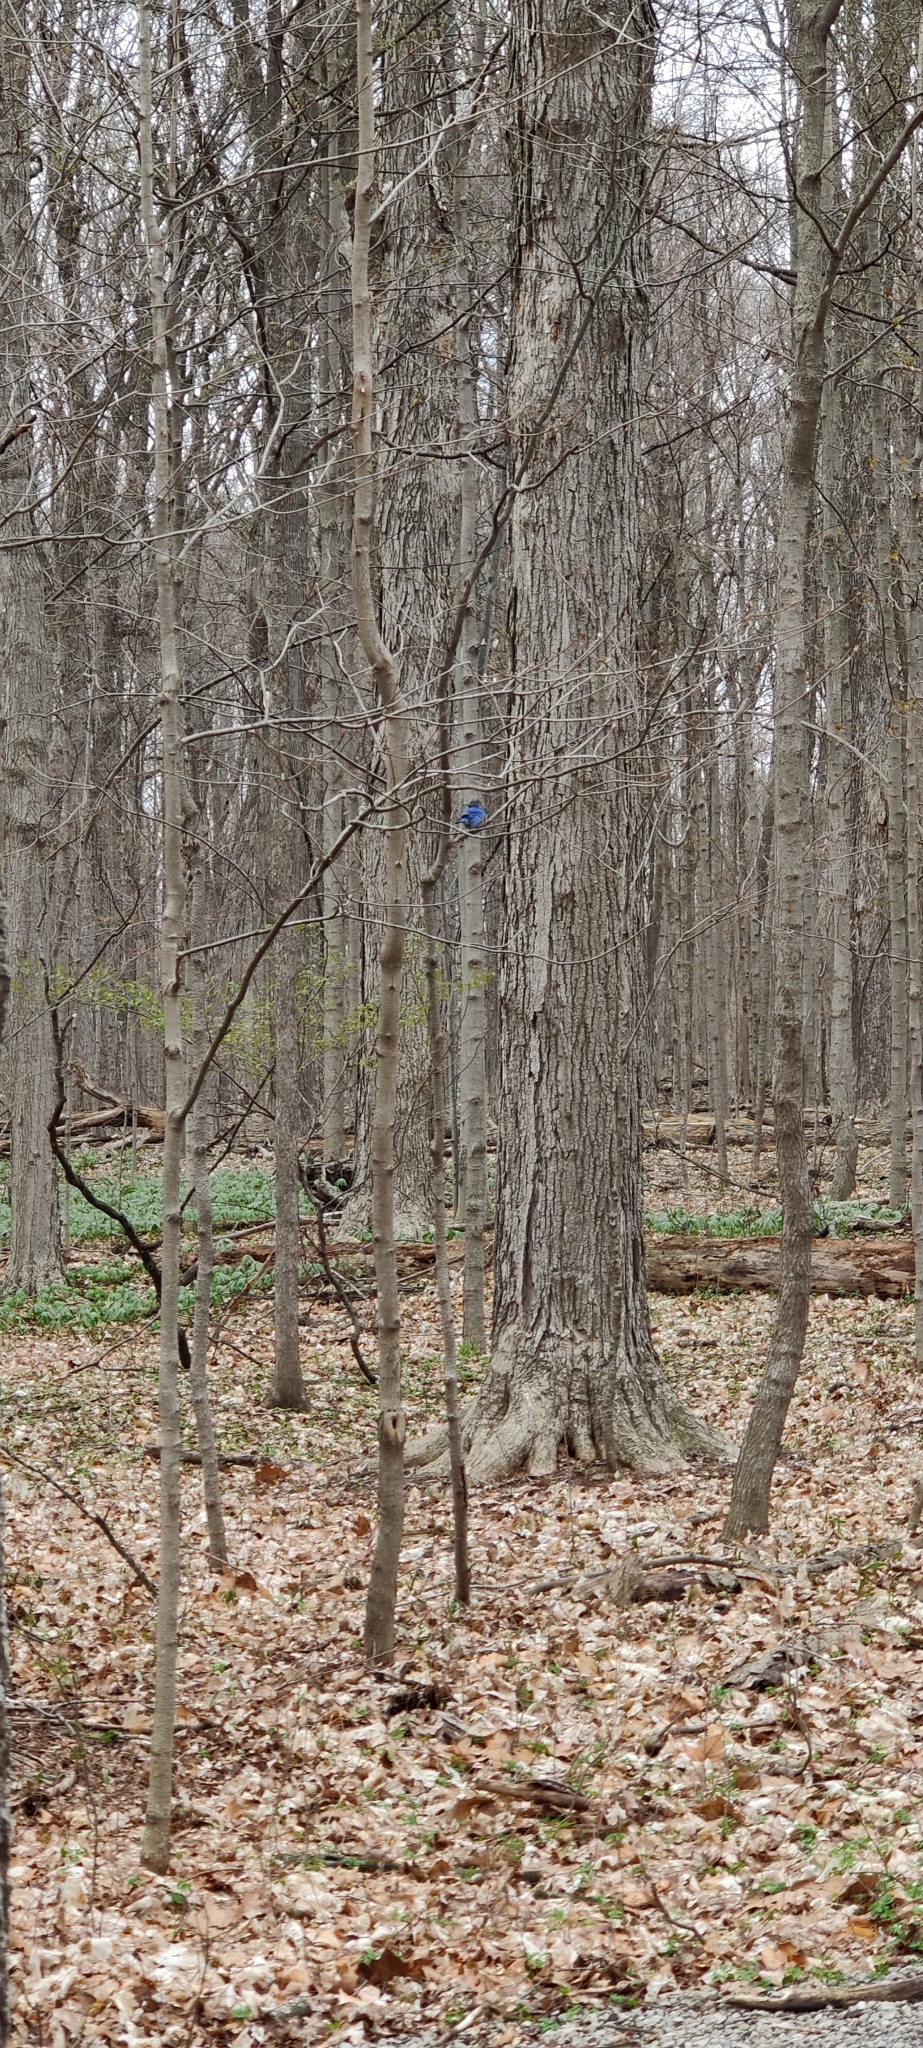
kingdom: Animalia
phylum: Chordata
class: Aves
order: Passeriformes
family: Turdidae
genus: Sialia
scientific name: Sialia sialis
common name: Eastern bluebird
